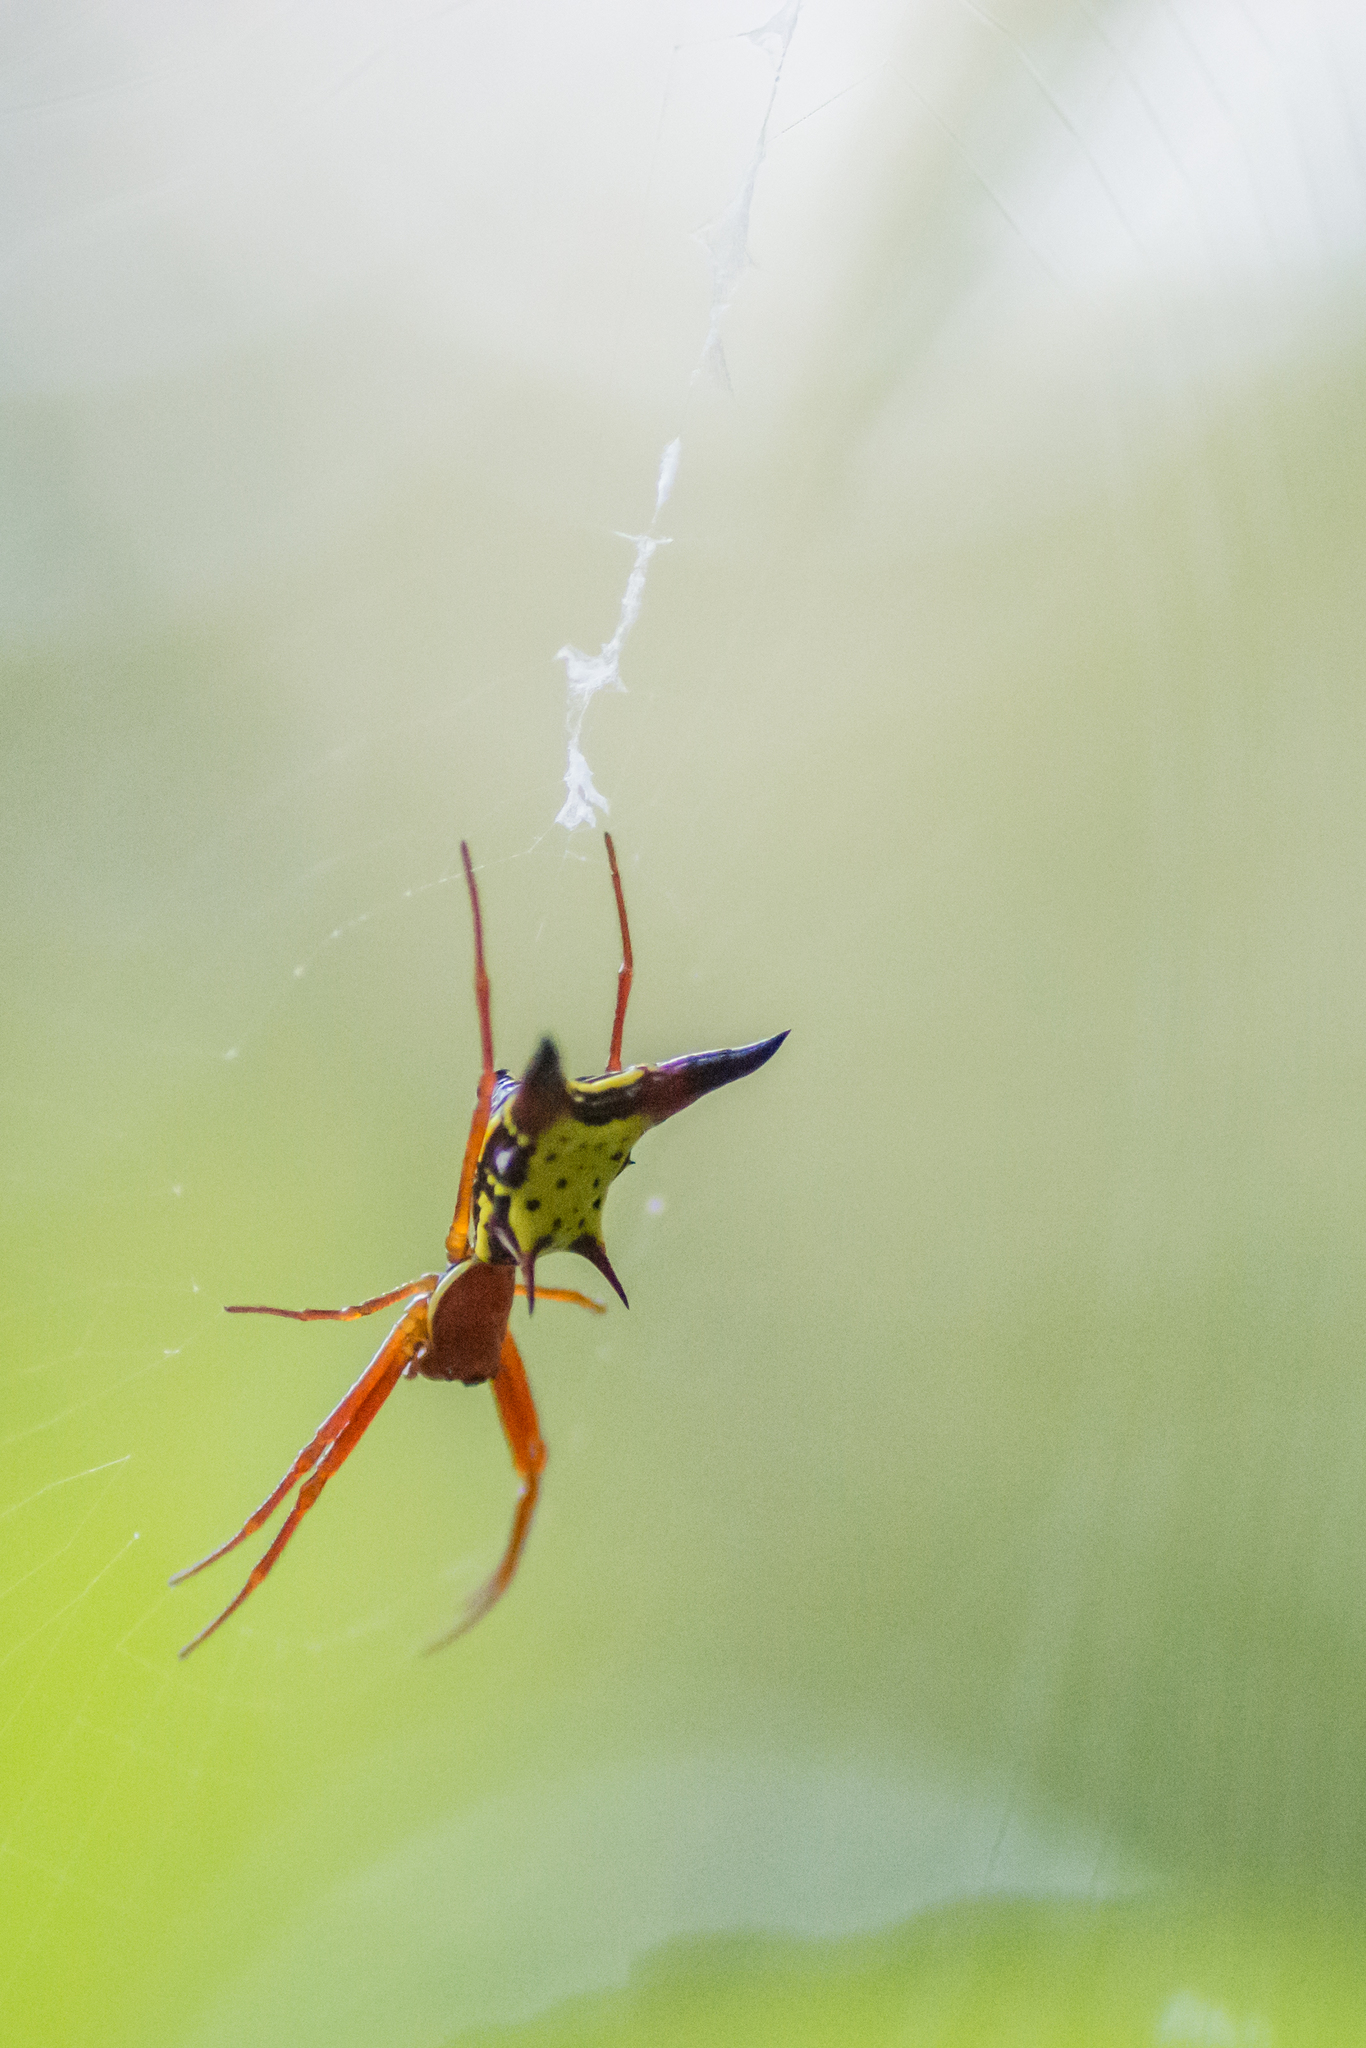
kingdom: Animalia
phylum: Arthropoda
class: Arachnida
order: Araneae
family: Araneidae
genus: Micrathena
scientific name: Micrathena sagittata
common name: Orb weavers
